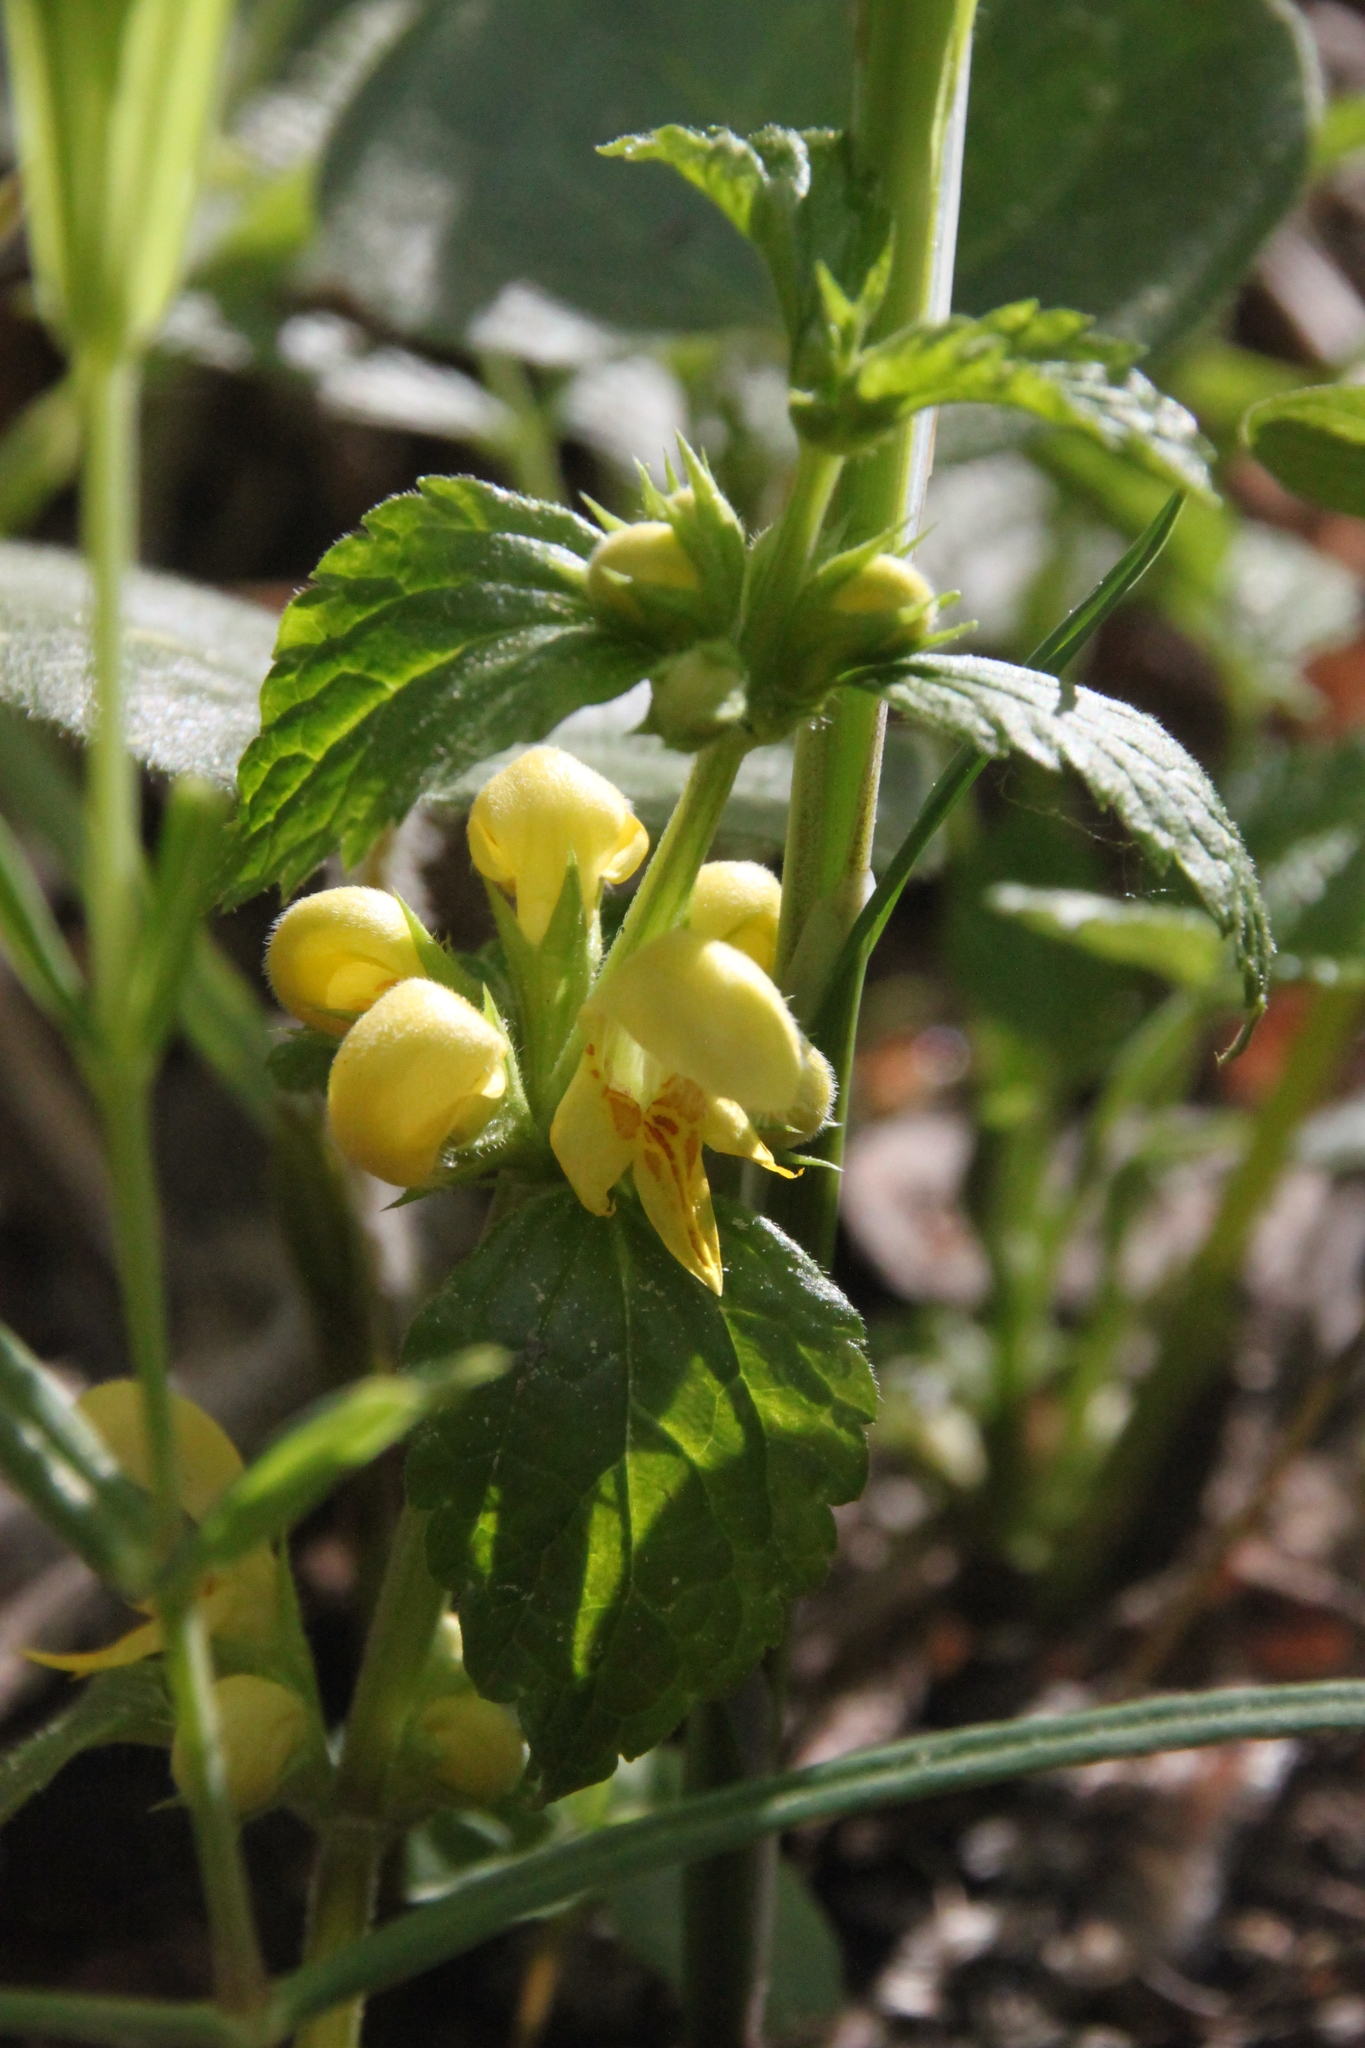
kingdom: Plantae
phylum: Tracheophyta
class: Magnoliopsida
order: Lamiales
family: Lamiaceae
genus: Lamium
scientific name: Lamium galeobdolon
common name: Yellow archangel
